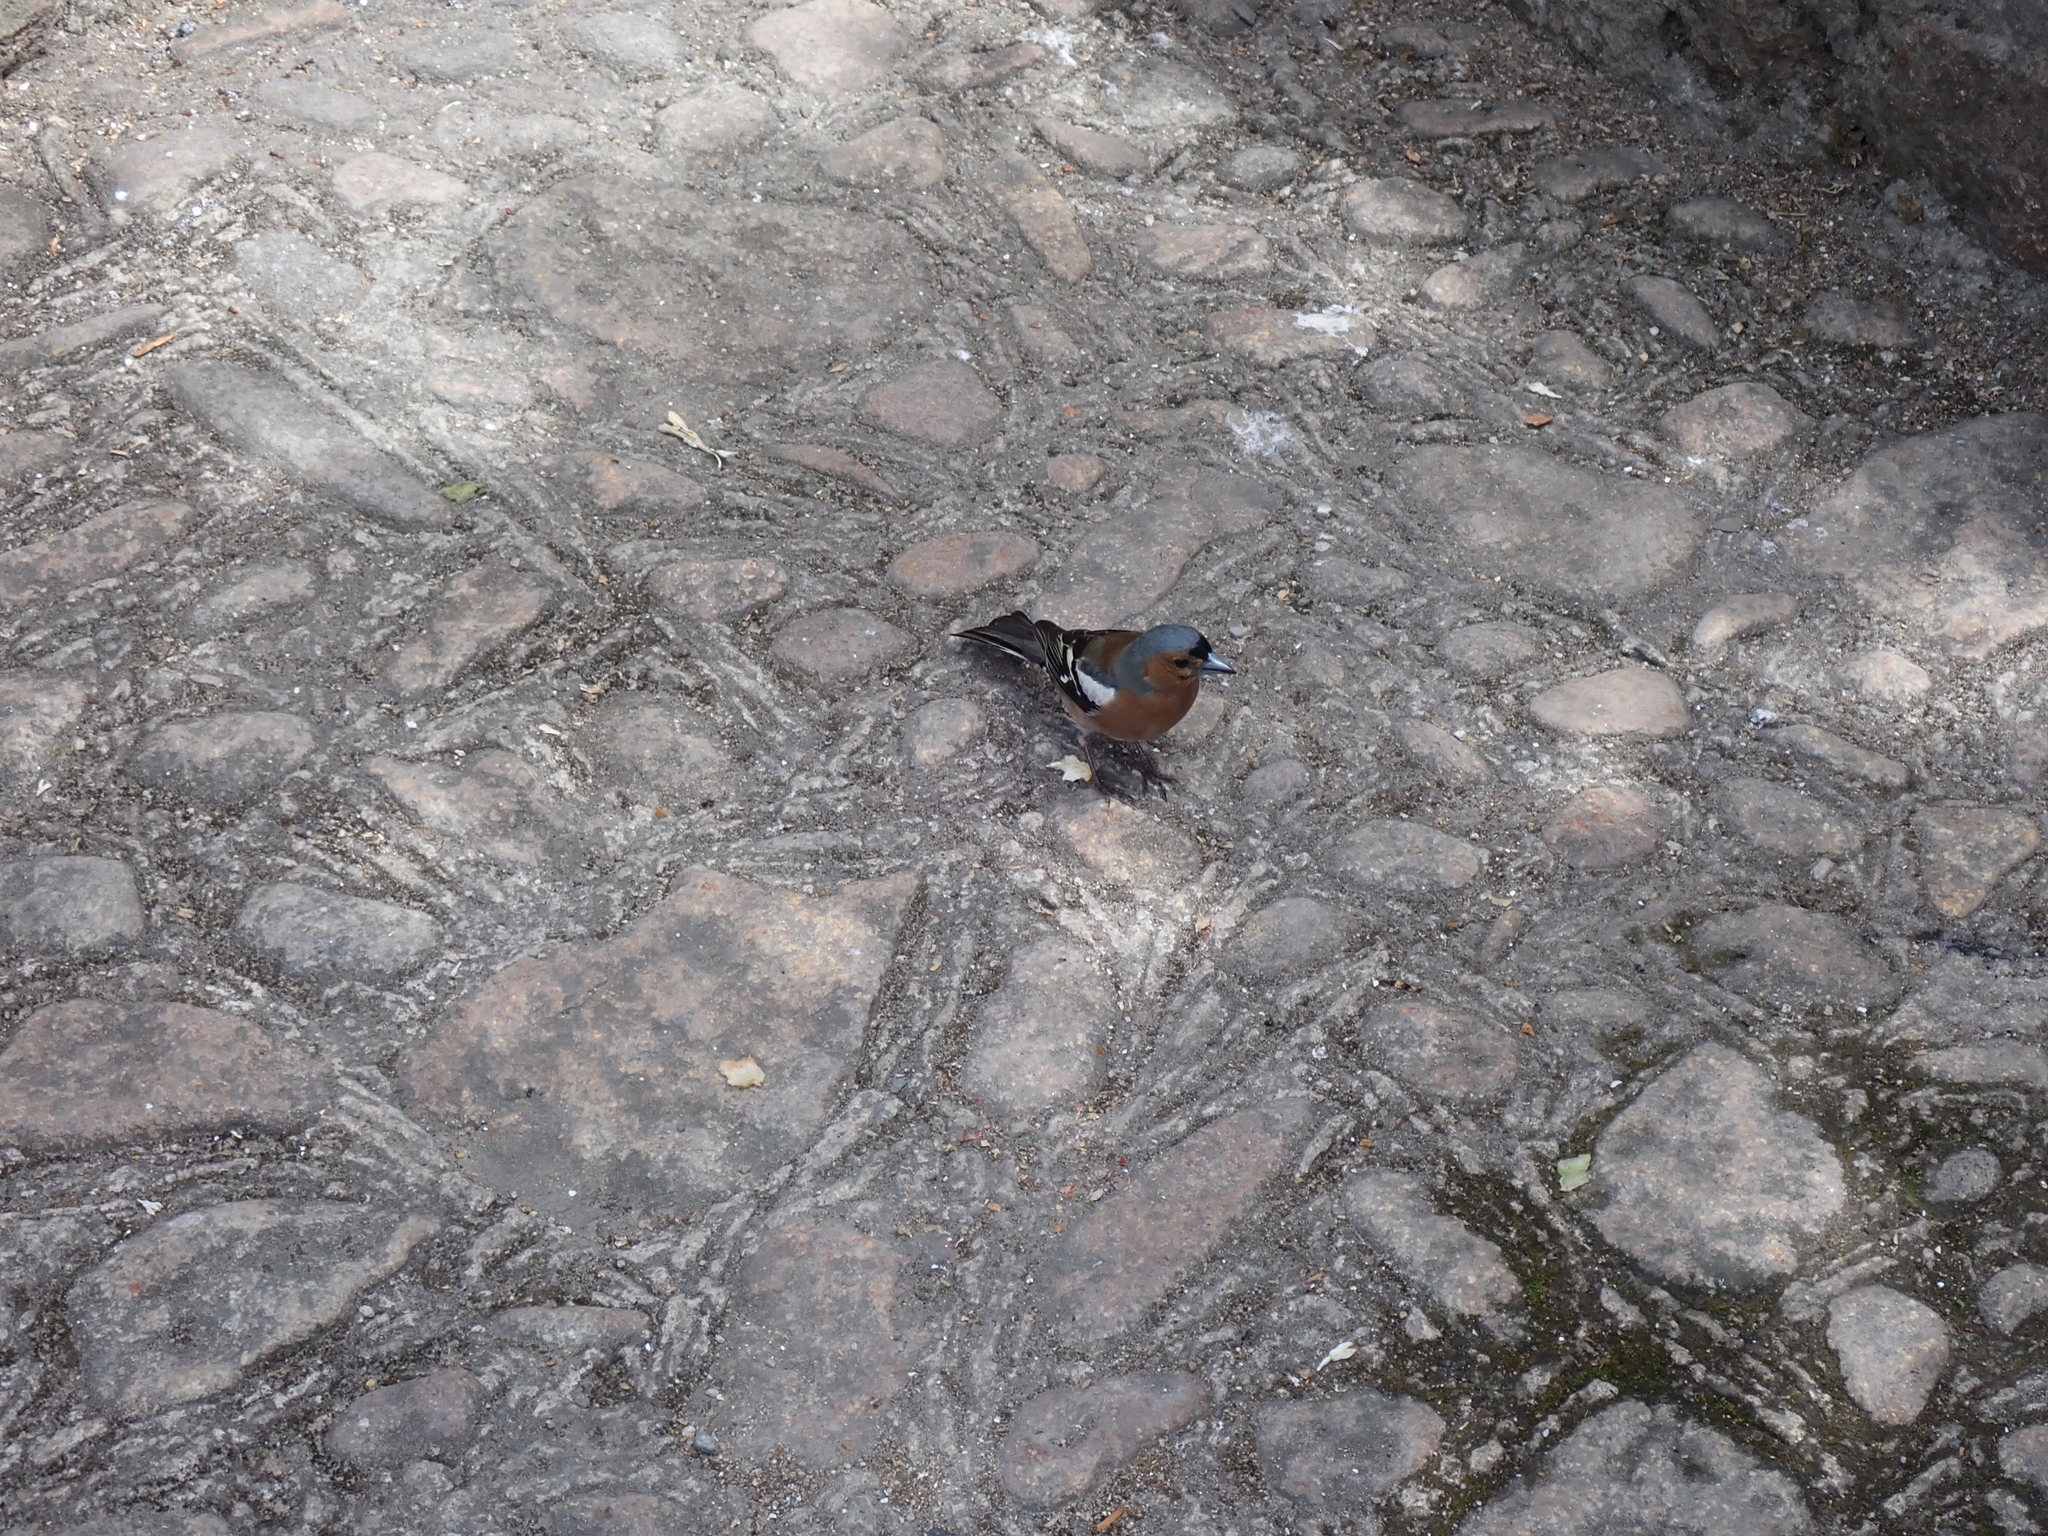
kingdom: Animalia
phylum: Chordata
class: Aves
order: Passeriformes
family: Fringillidae
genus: Fringilla
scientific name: Fringilla coelebs
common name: Common chaffinch
